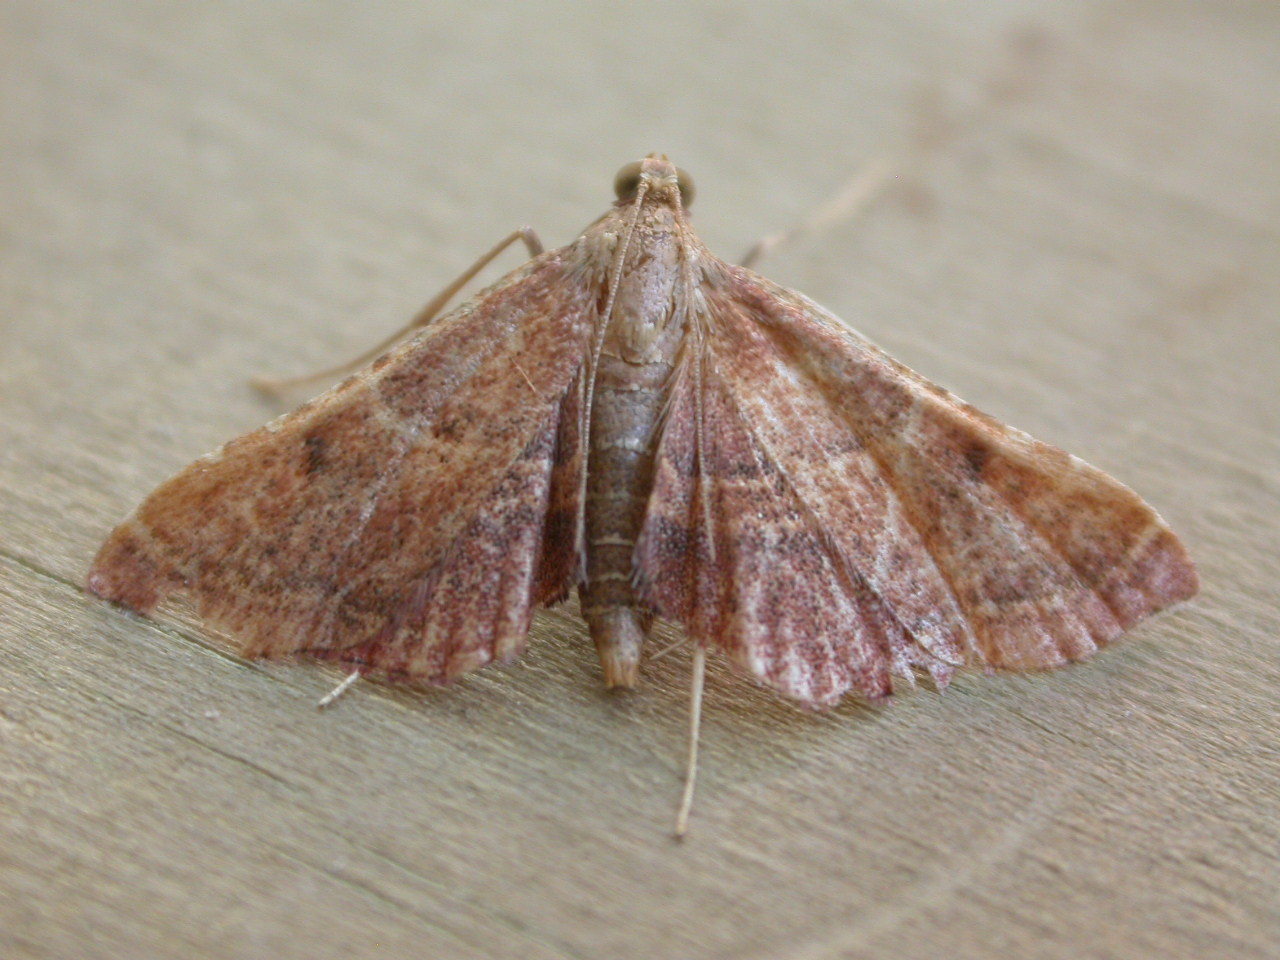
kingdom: Animalia
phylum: Arthropoda
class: Insecta
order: Lepidoptera
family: Pyralidae
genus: Endotricha
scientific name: Endotricha flammealis
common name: Rosy tabby
